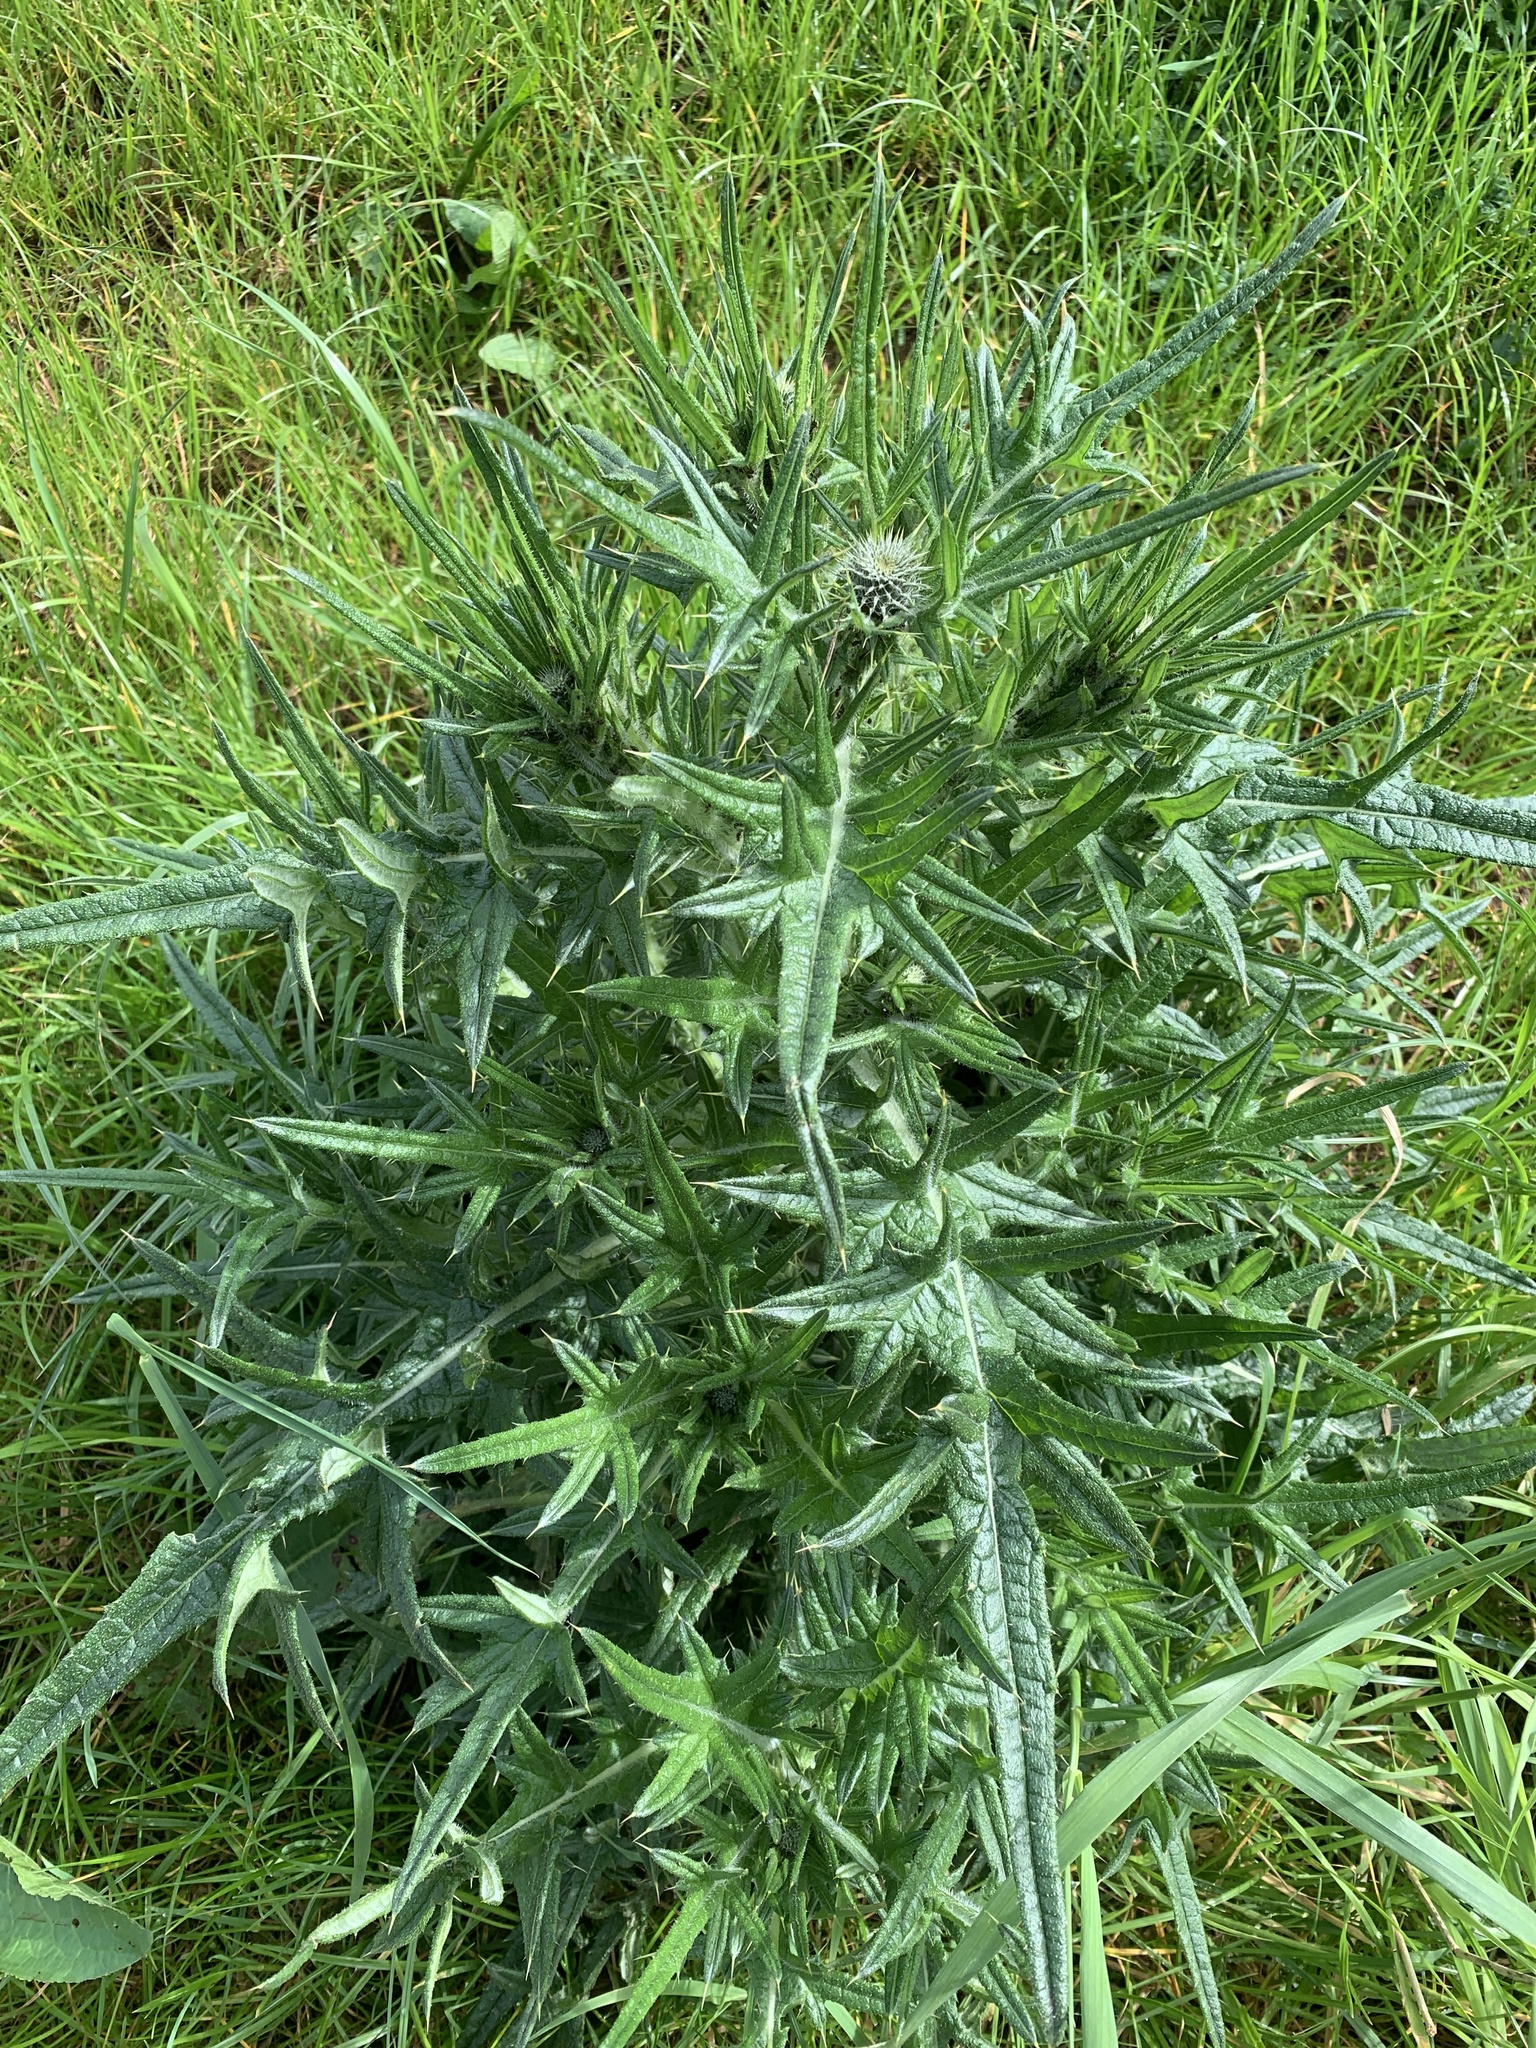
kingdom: Plantae
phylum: Tracheophyta
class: Magnoliopsida
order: Asterales
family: Asteraceae
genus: Cirsium
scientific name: Cirsium vulgare
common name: Bull thistle
